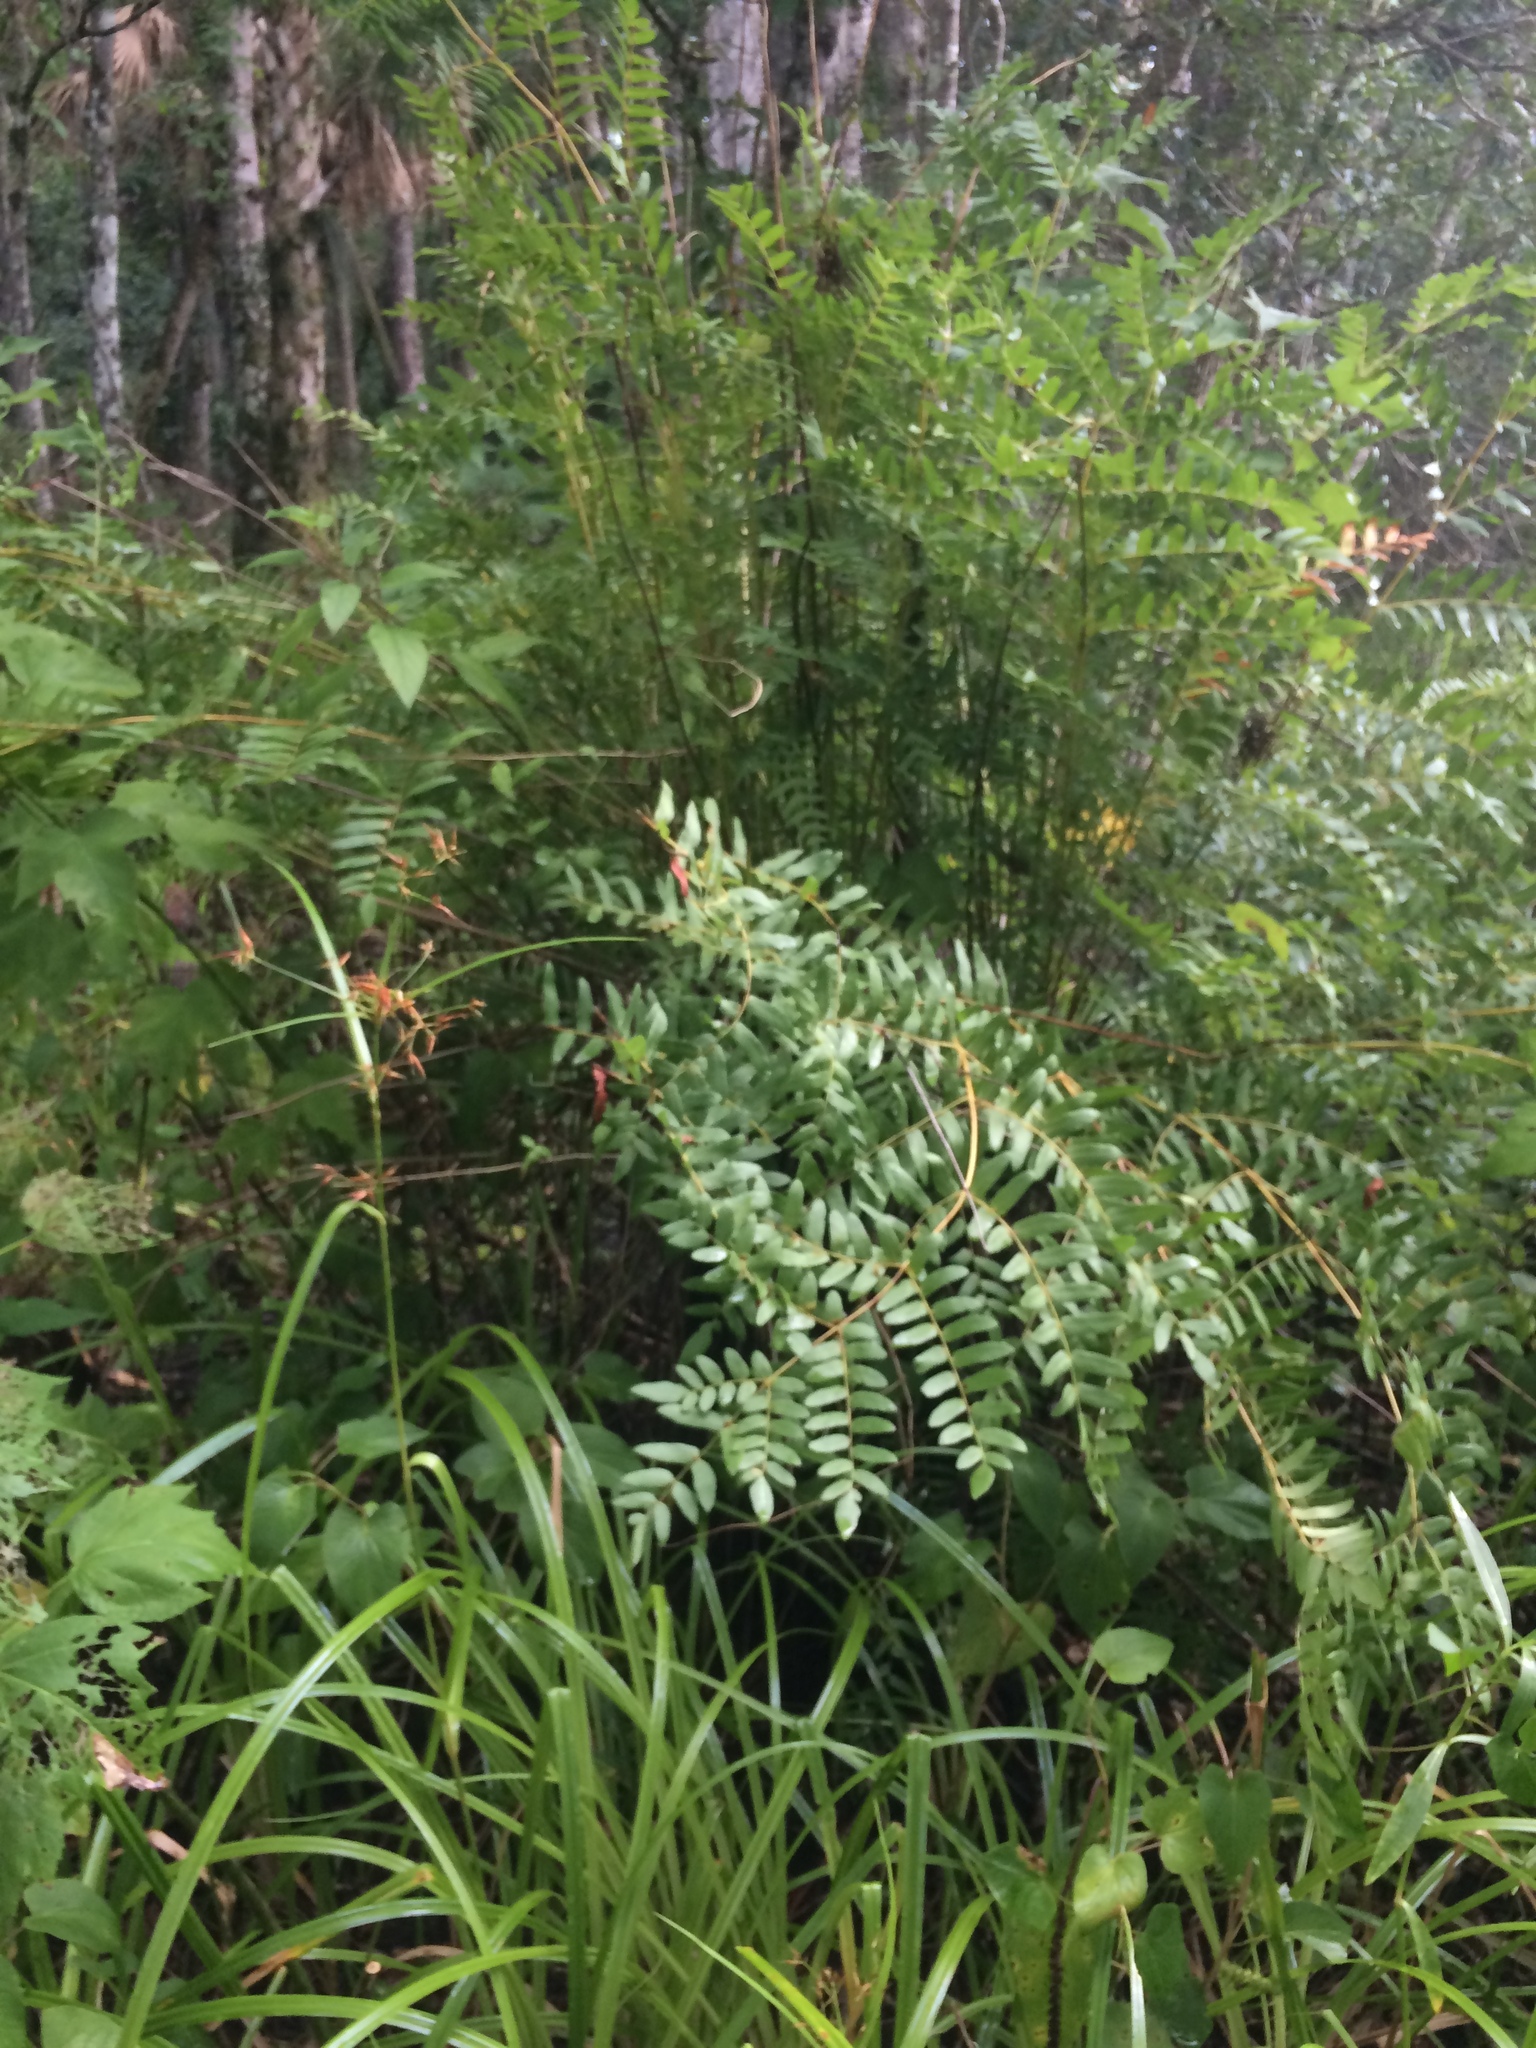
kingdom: Plantae
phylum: Tracheophyta
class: Polypodiopsida
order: Osmundales
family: Osmundaceae
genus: Osmunda
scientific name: Osmunda spectabilis
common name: American royal fern
